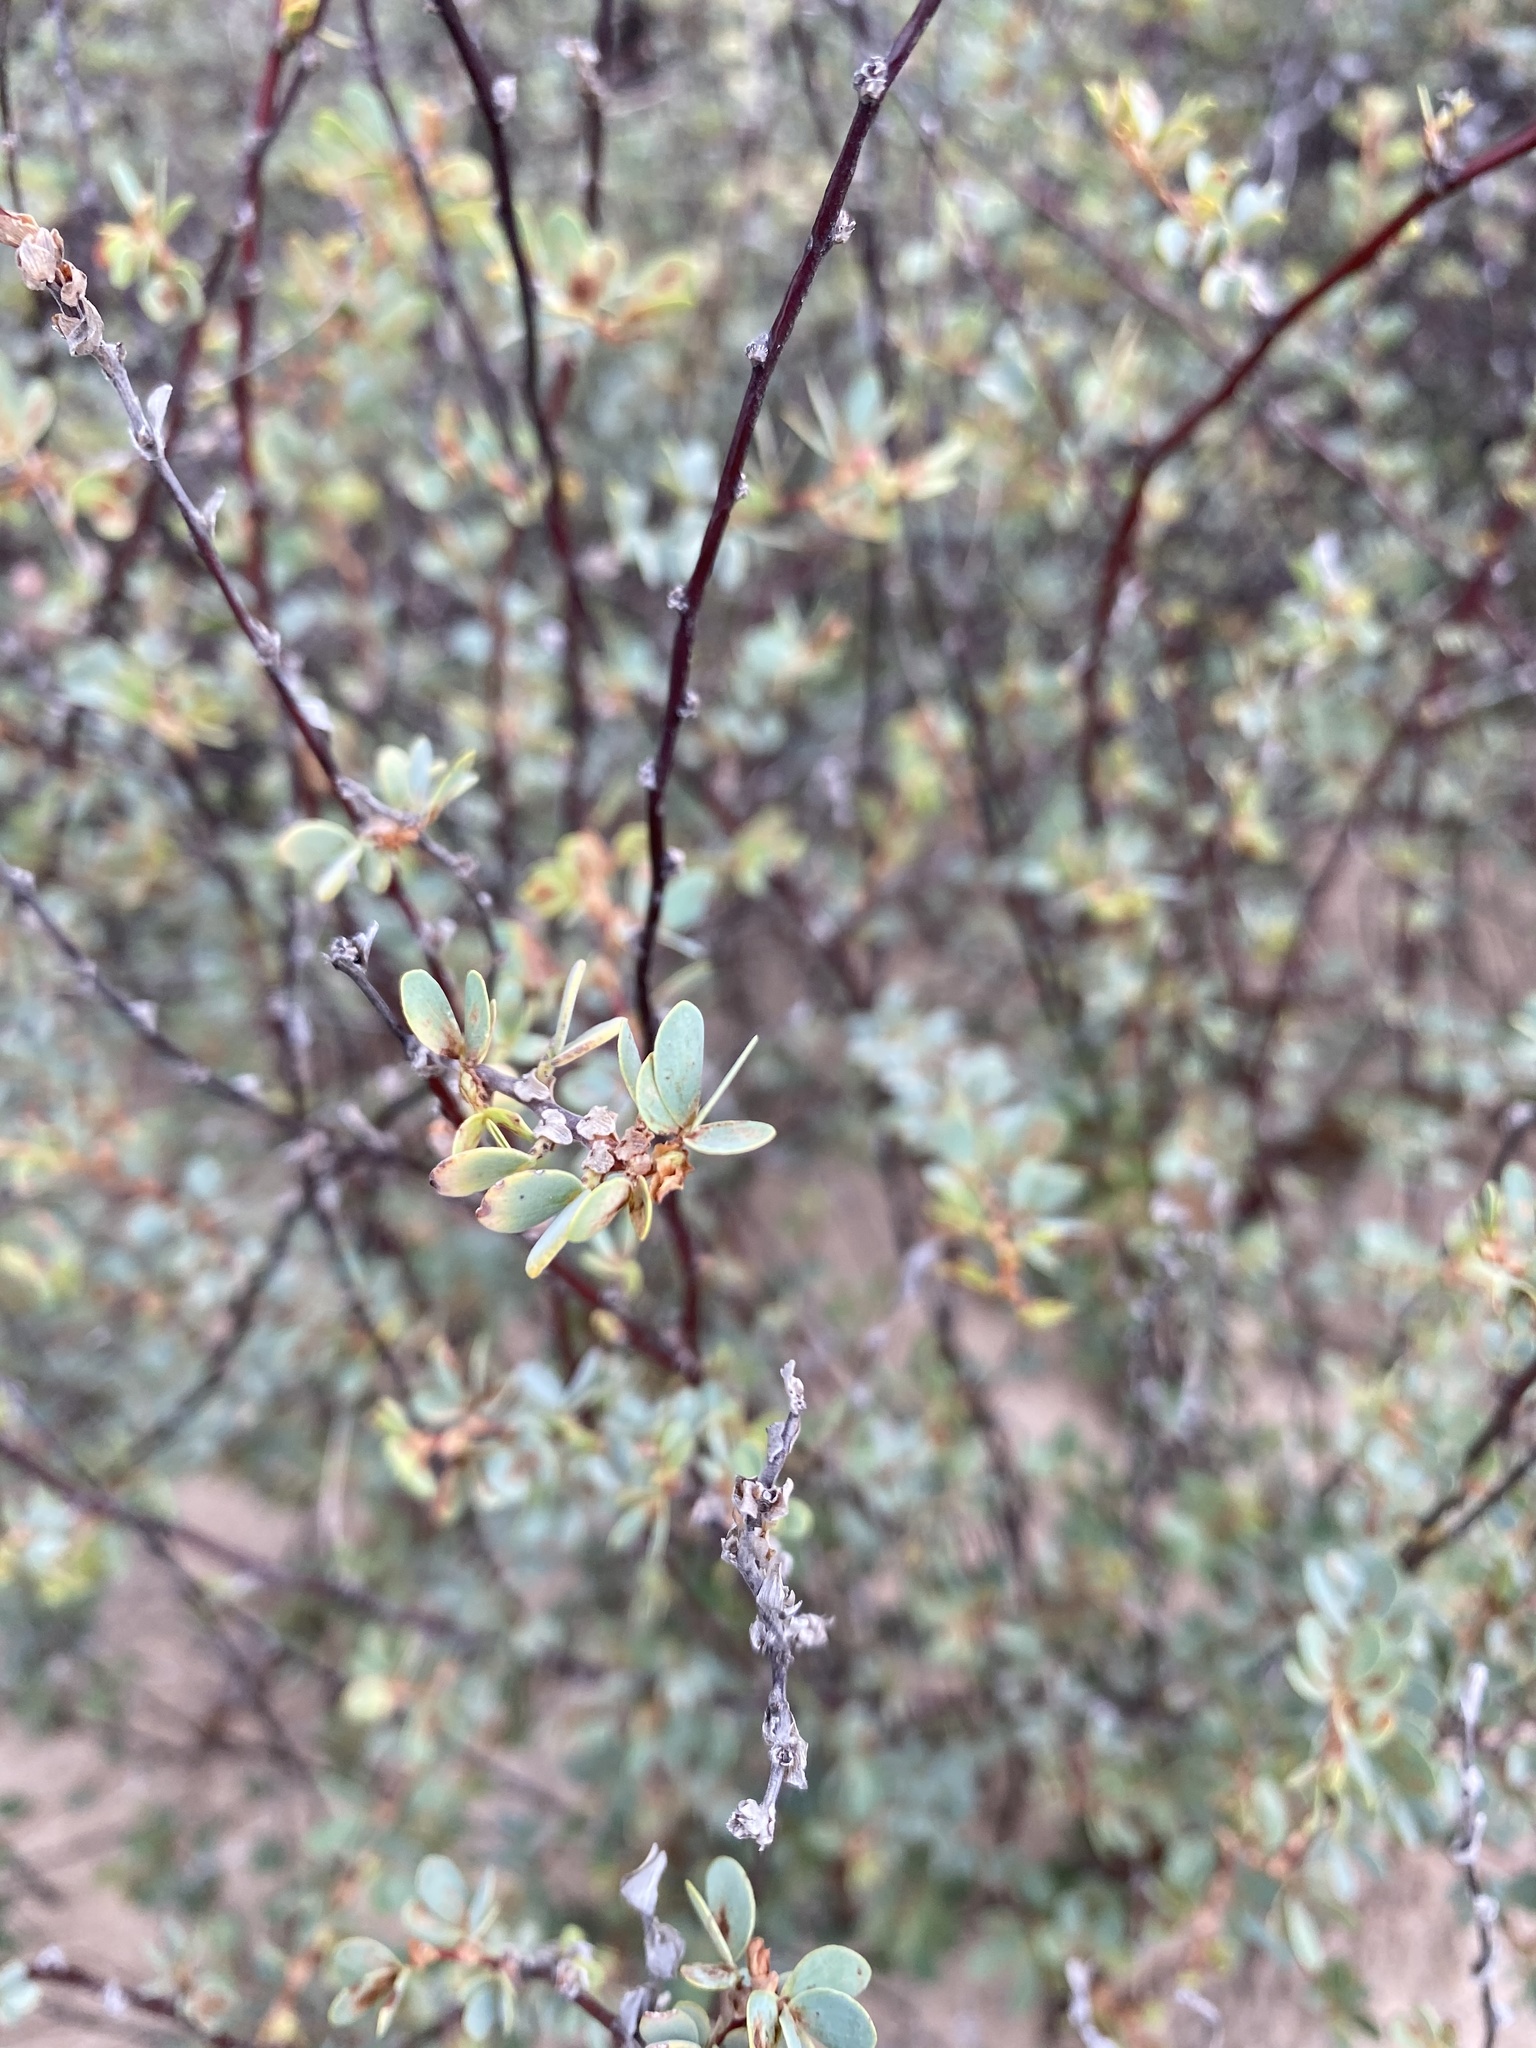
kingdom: Plantae
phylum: Tracheophyta
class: Magnoliopsida
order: Fabales
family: Fabaceae
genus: Chamaecrista
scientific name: Chamaecrista ramosa
